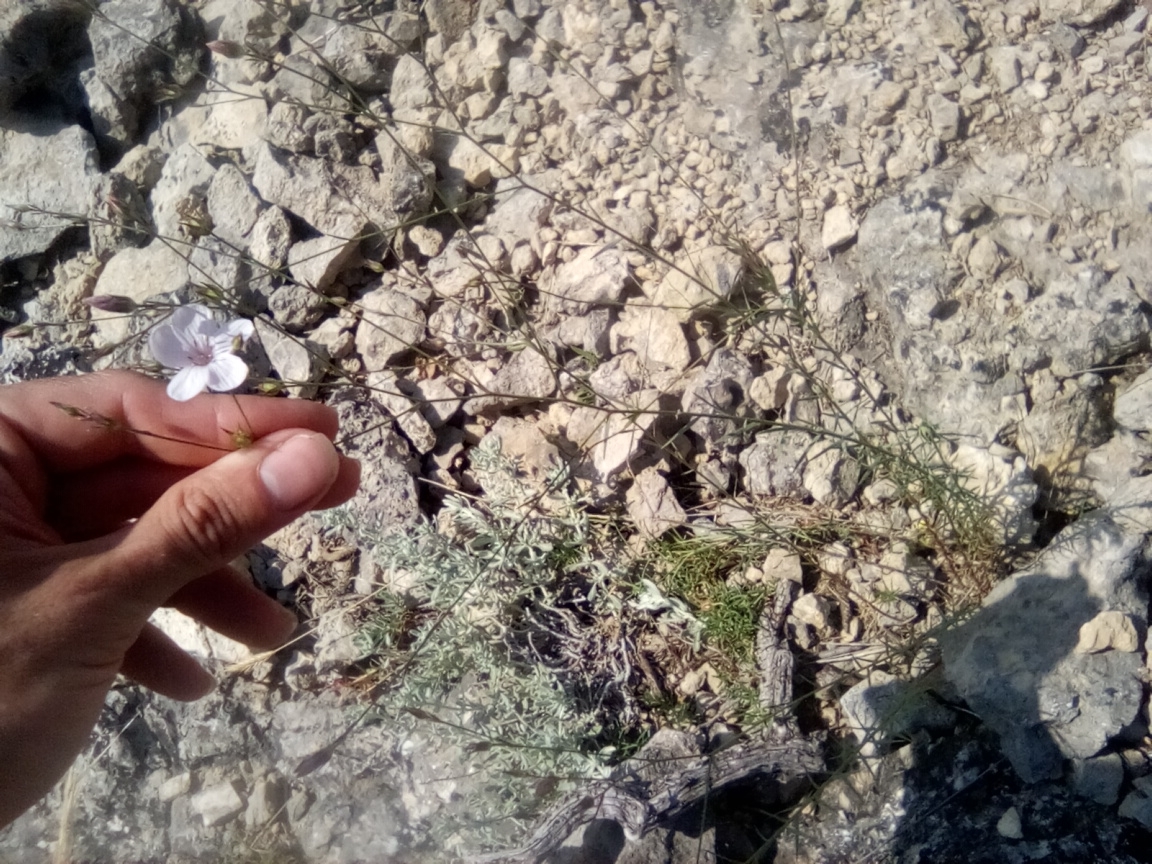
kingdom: Plantae
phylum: Tracheophyta
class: Magnoliopsida
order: Malpighiales
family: Linaceae
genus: Linum
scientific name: Linum tenuifolium
